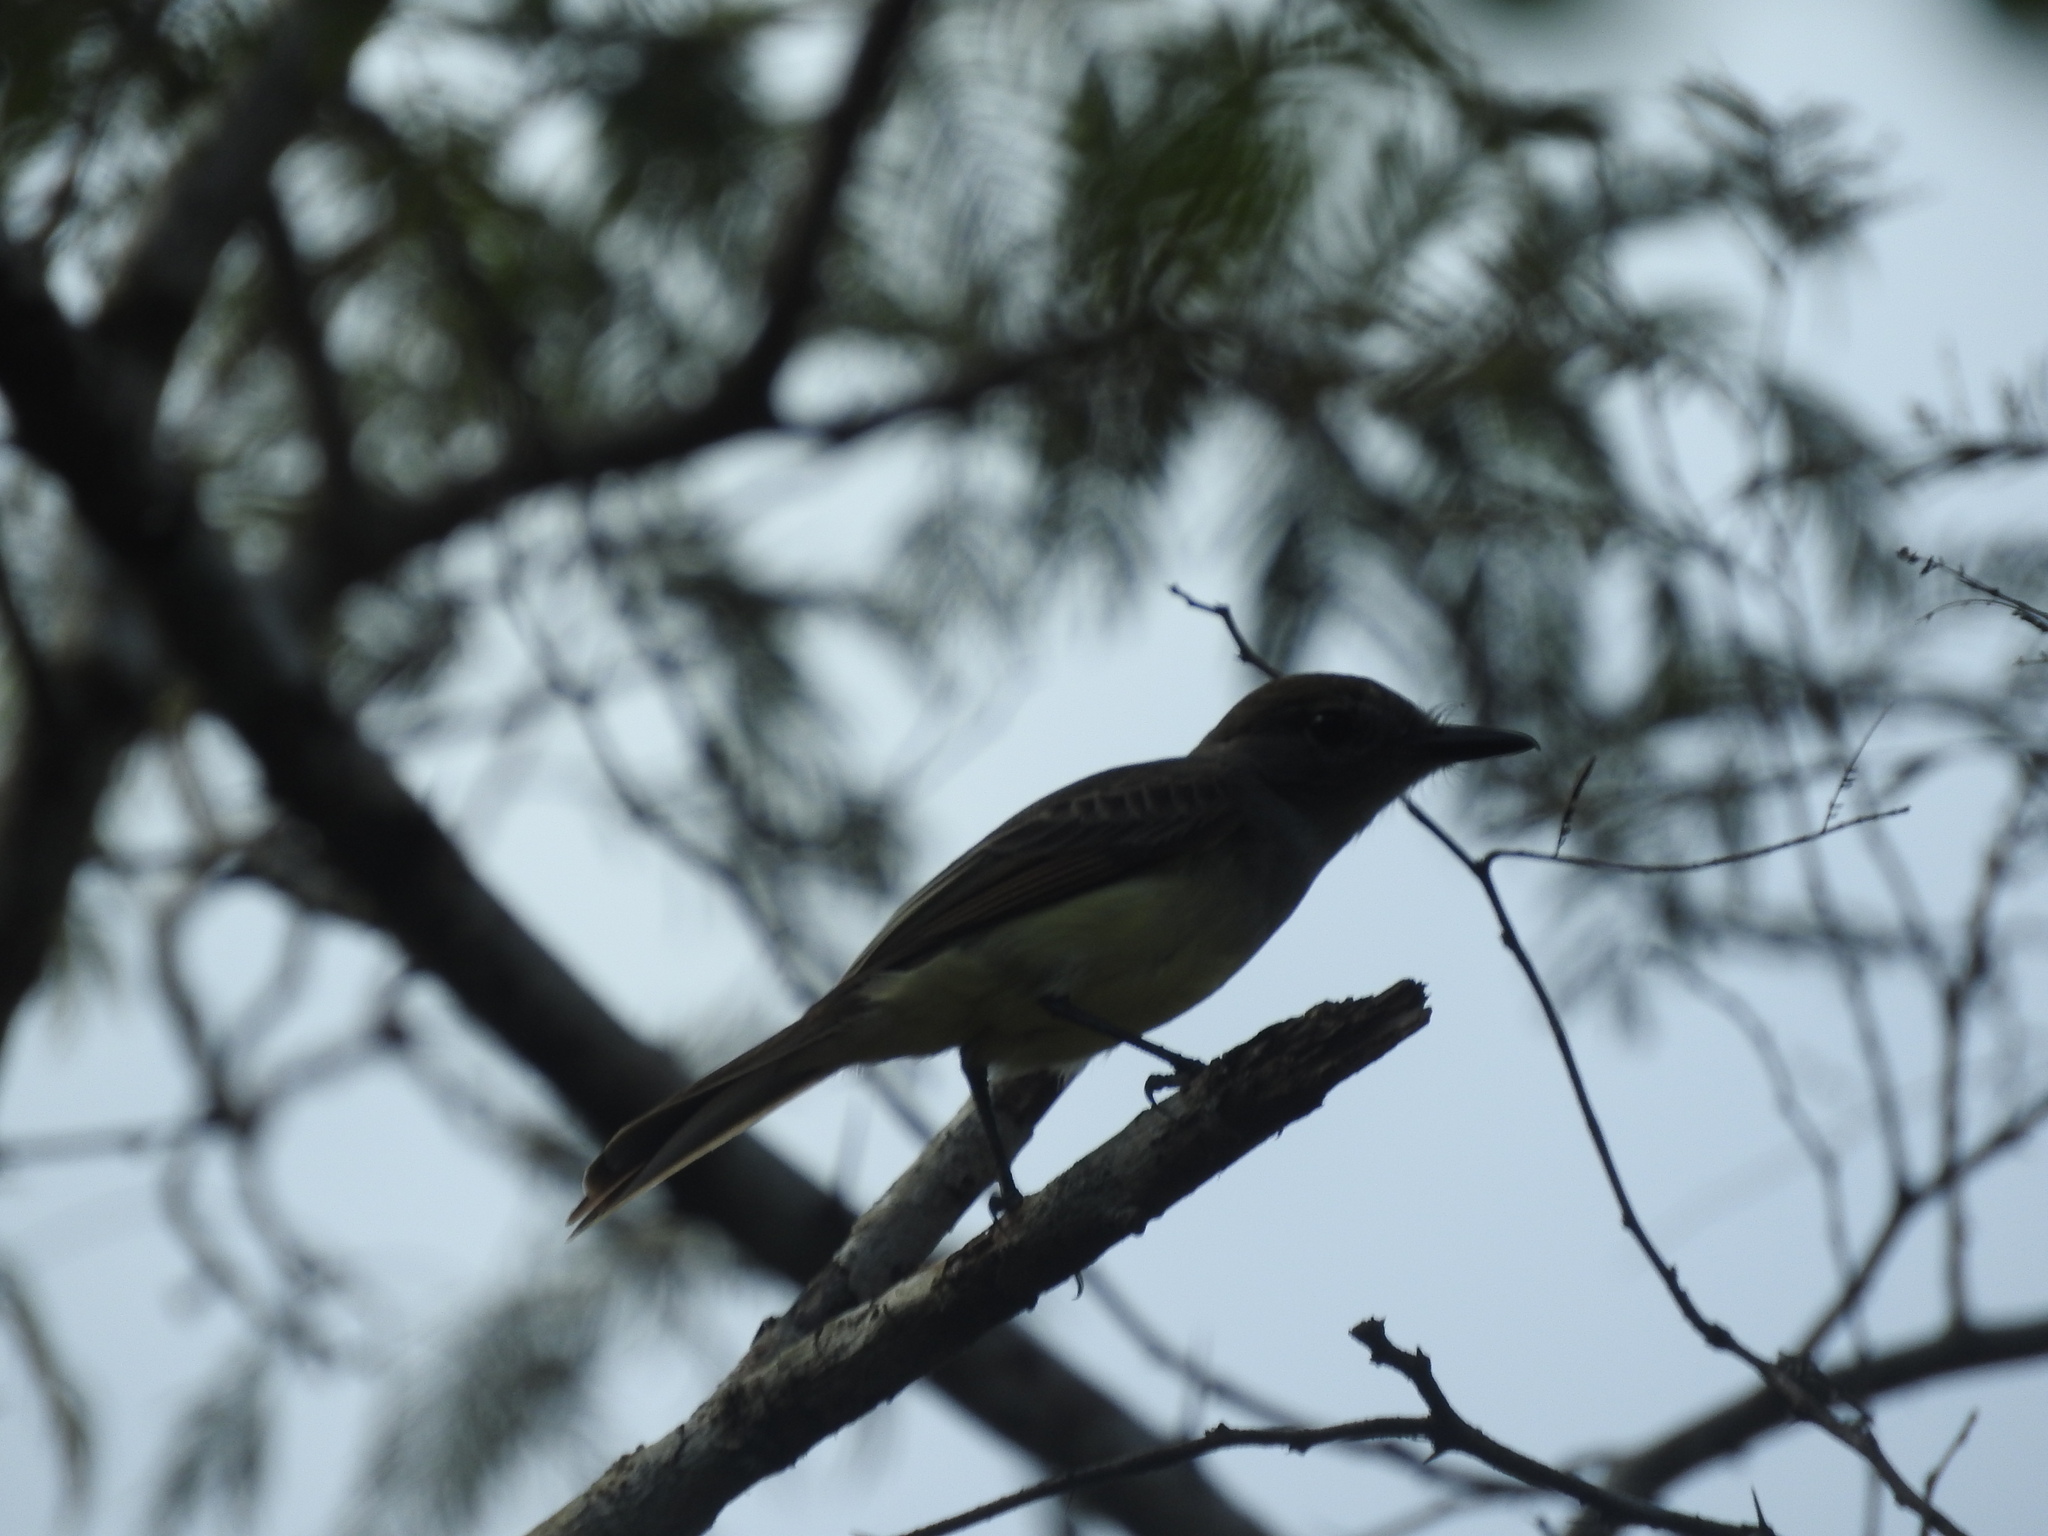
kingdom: Animalia
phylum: Chordata
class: Aves
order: Passeriformes
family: Tyrannidae
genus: Myiarchus
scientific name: Myiarchus yucatanensis
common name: Yucatan flycatcher
